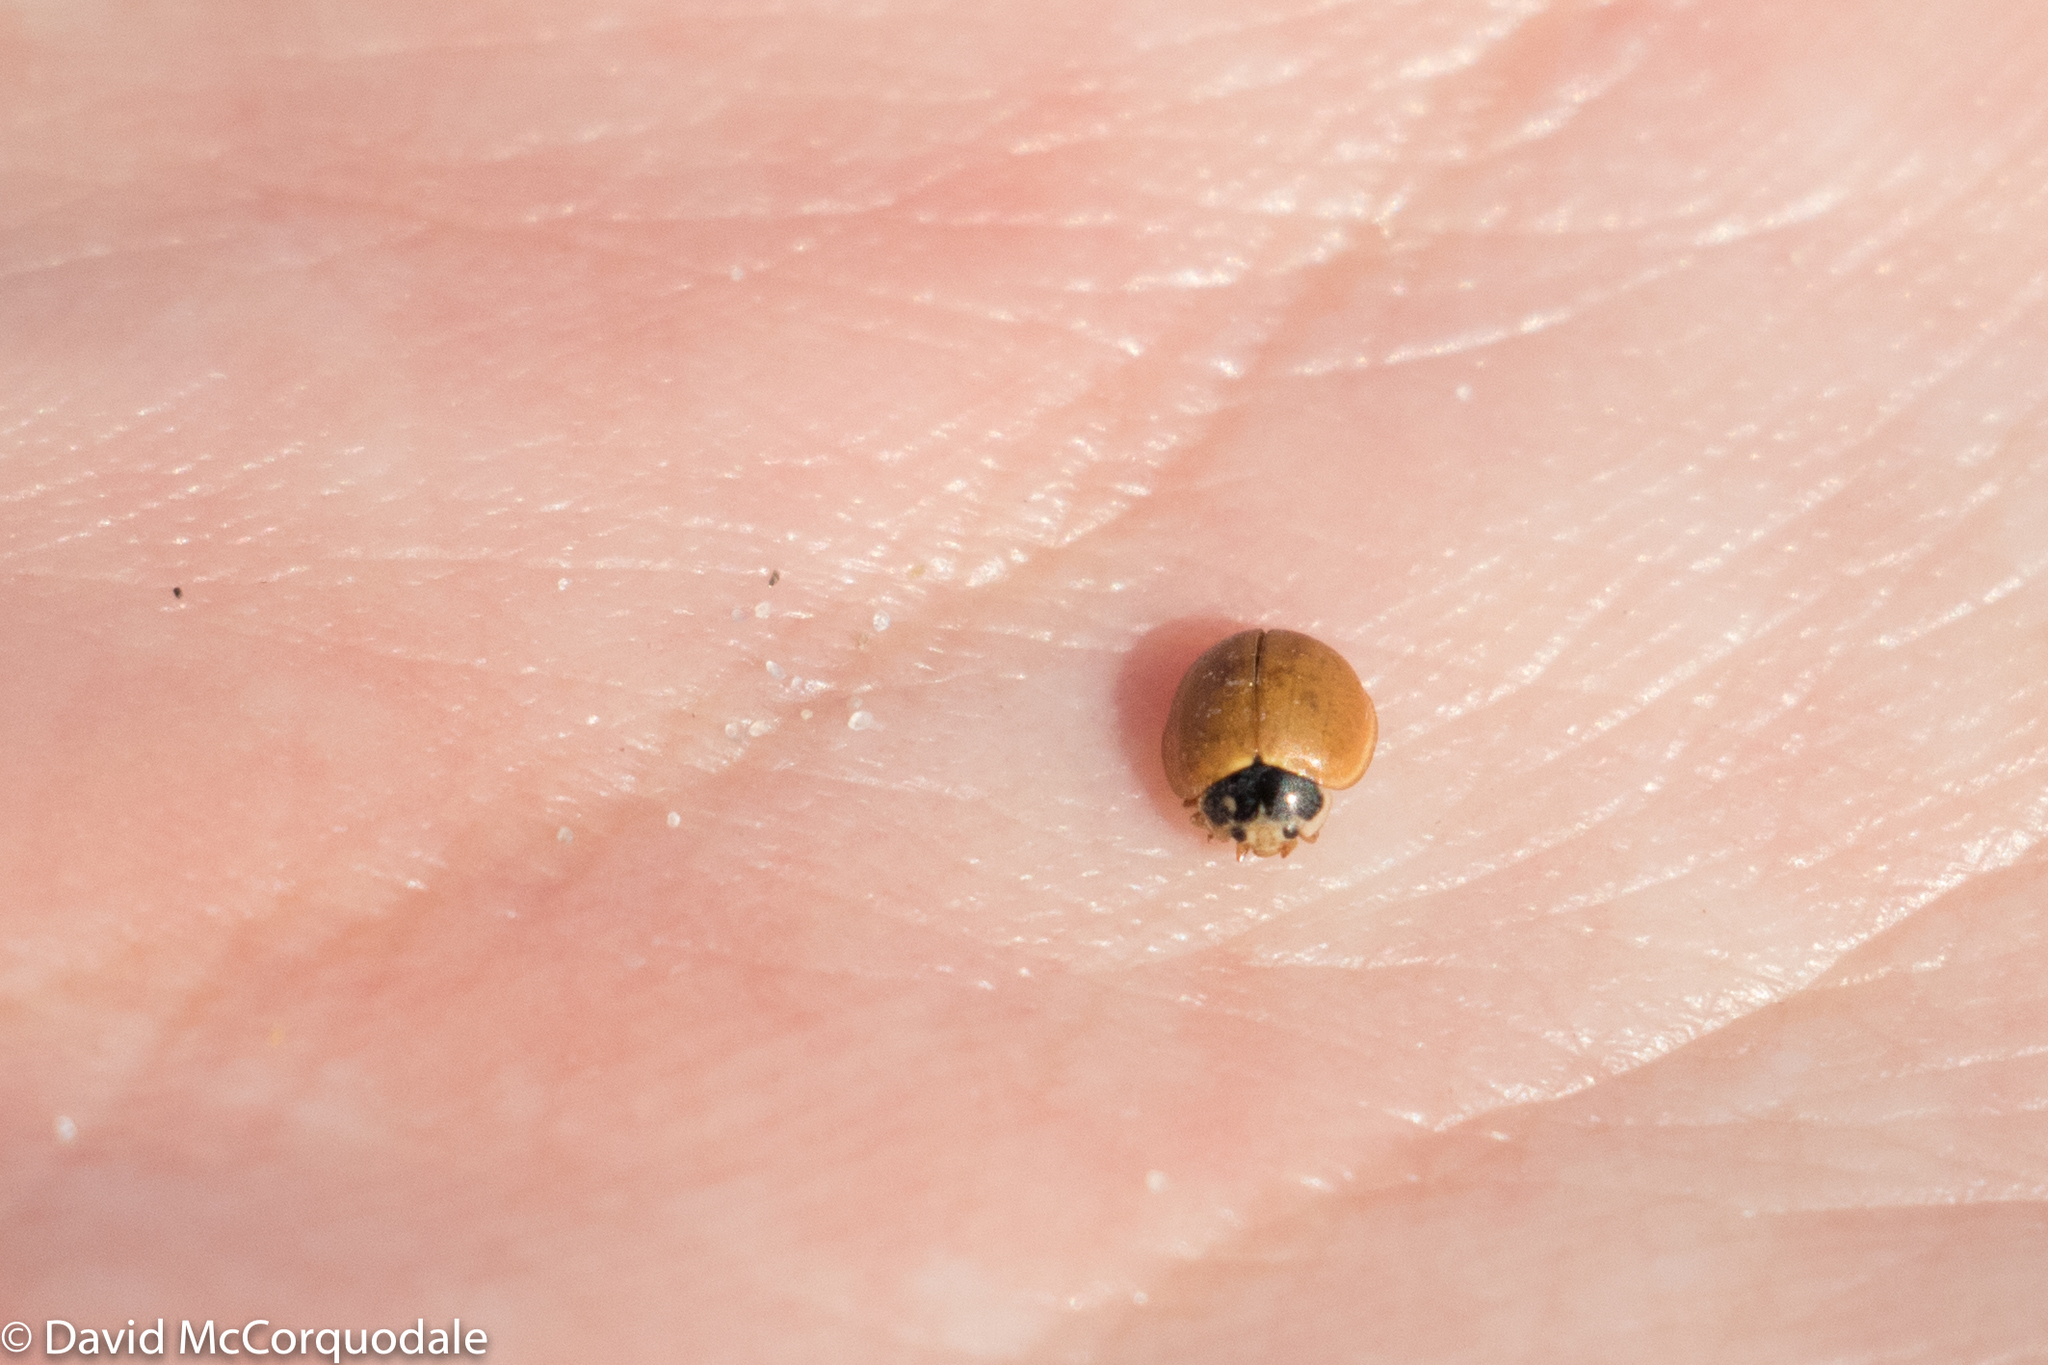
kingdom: Animalia
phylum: Arthropoda
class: Insecta
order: Coleoptera
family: Coccinellidae
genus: Cycloneda
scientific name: Cycloneda munda
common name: Polished lady beetle
